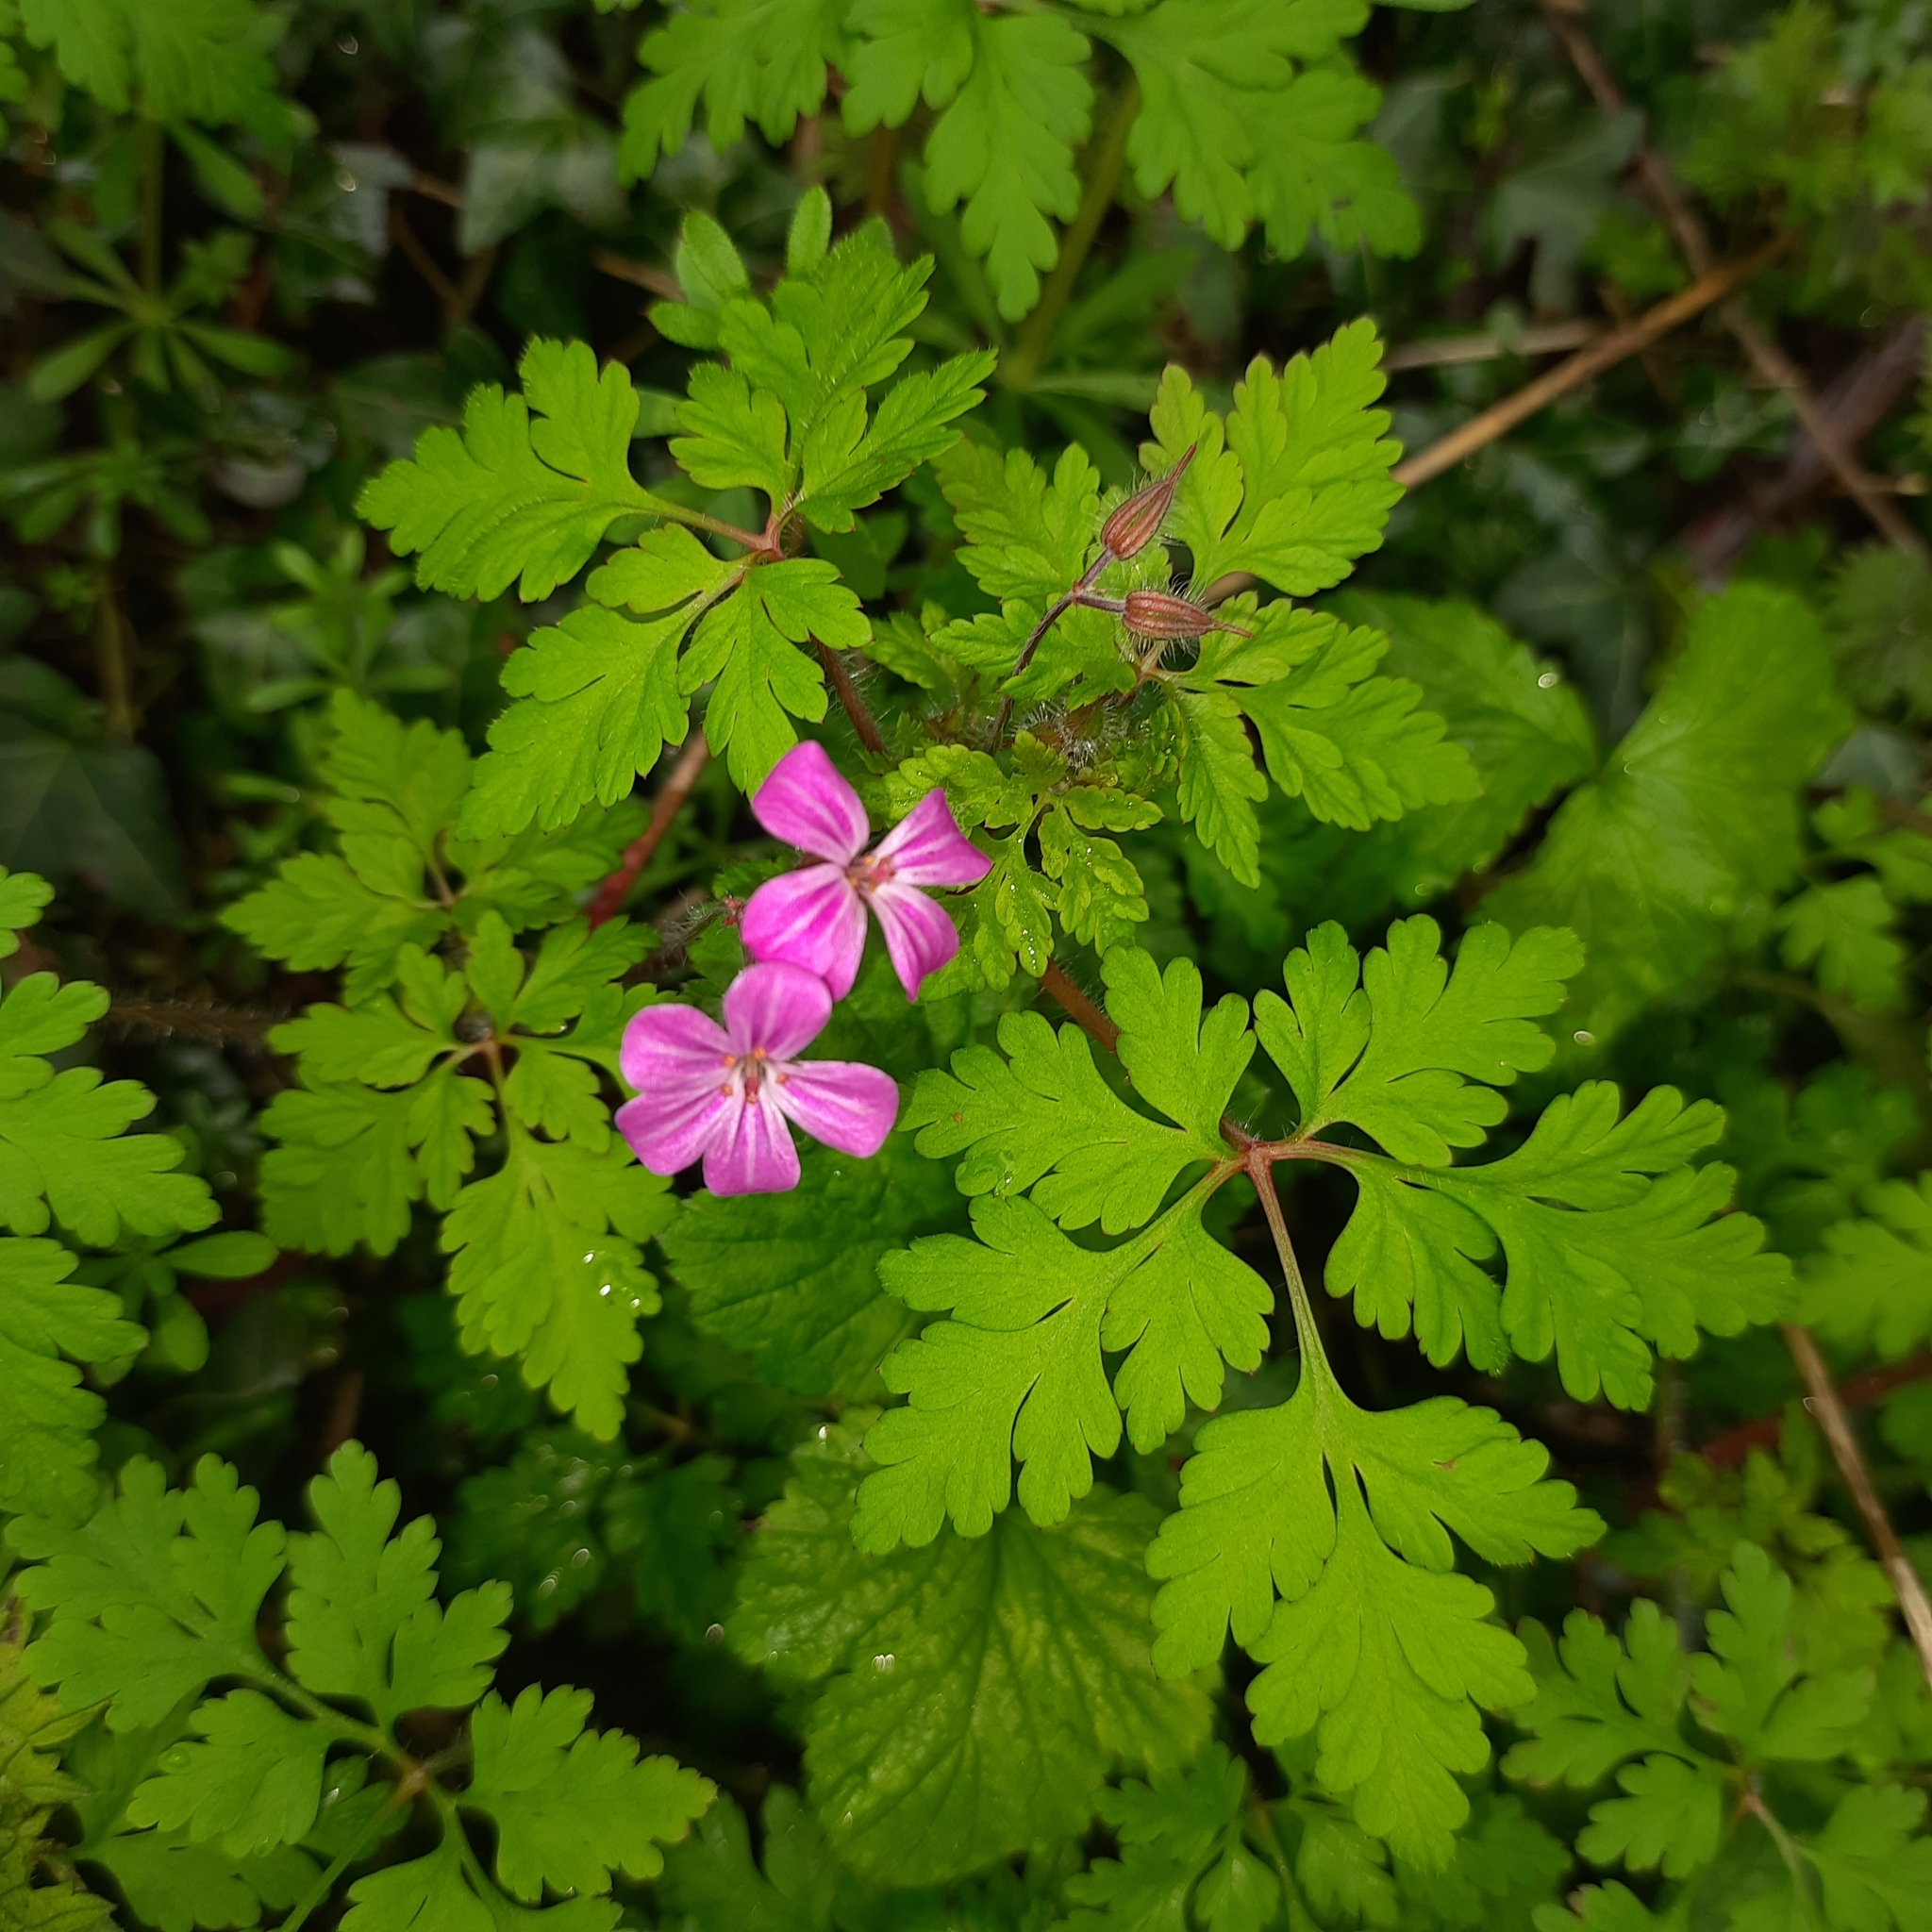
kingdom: Plantae
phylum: Tracheophyta
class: Magnoliopsida
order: Geraniales
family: Geraniaceae
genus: Geranium
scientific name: Geranium robertianum
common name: Herb-robert
